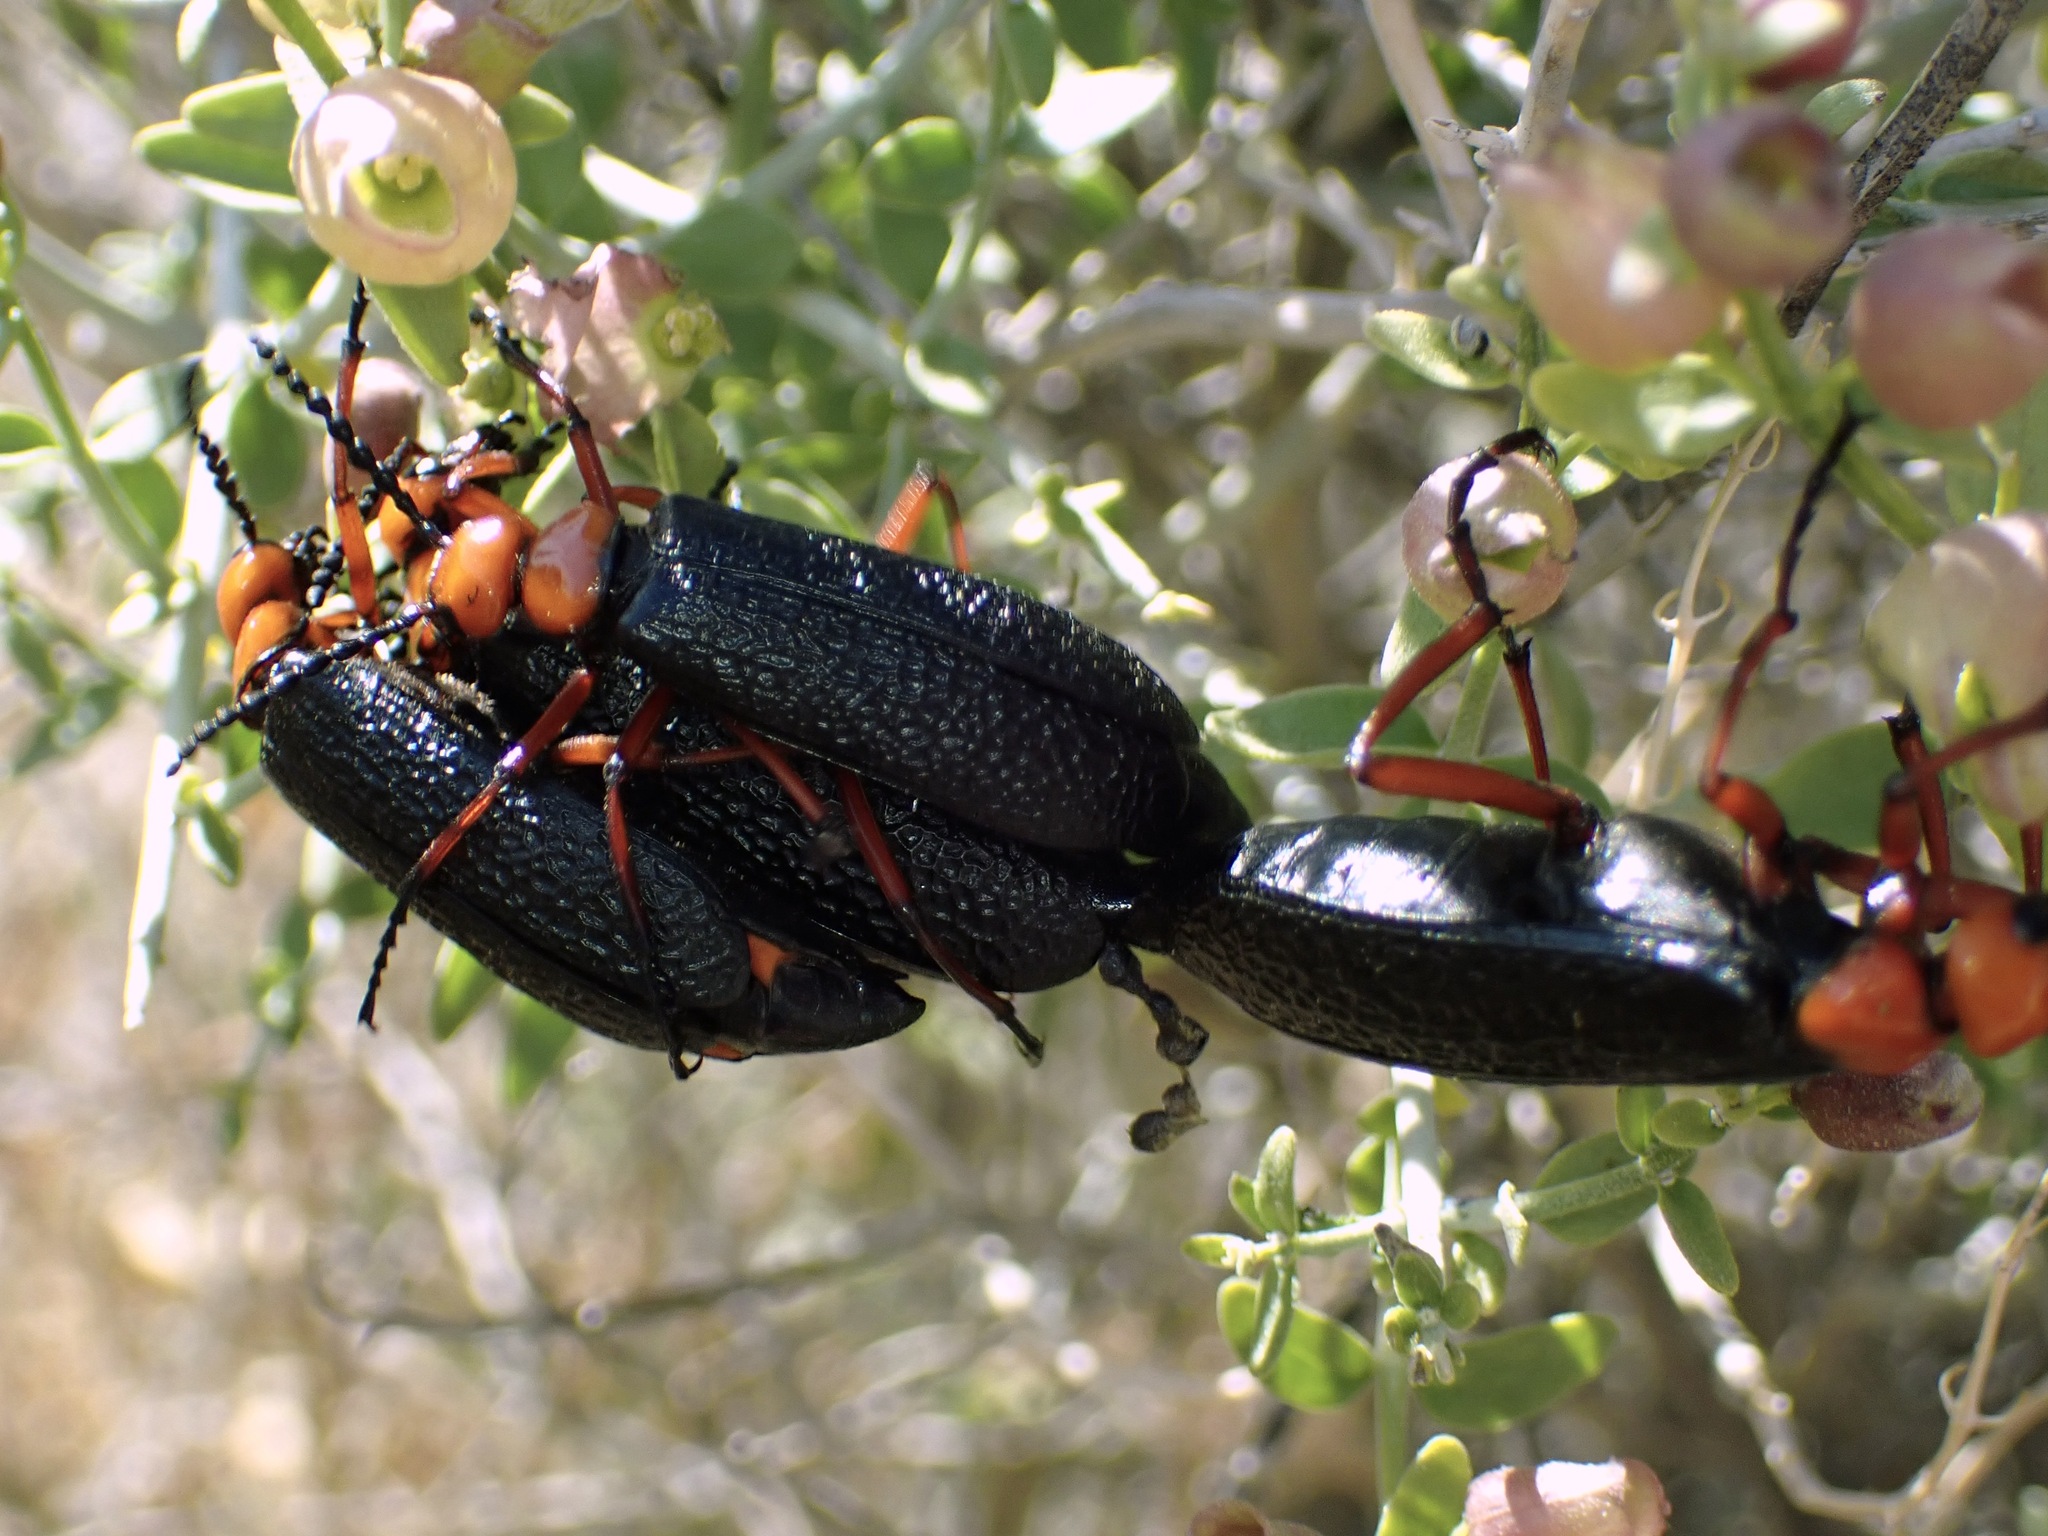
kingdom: Animalia
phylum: Arthropoda
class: Insecta
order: Coleoptera
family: Meloidae
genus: Lytta
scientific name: Lytta magister
